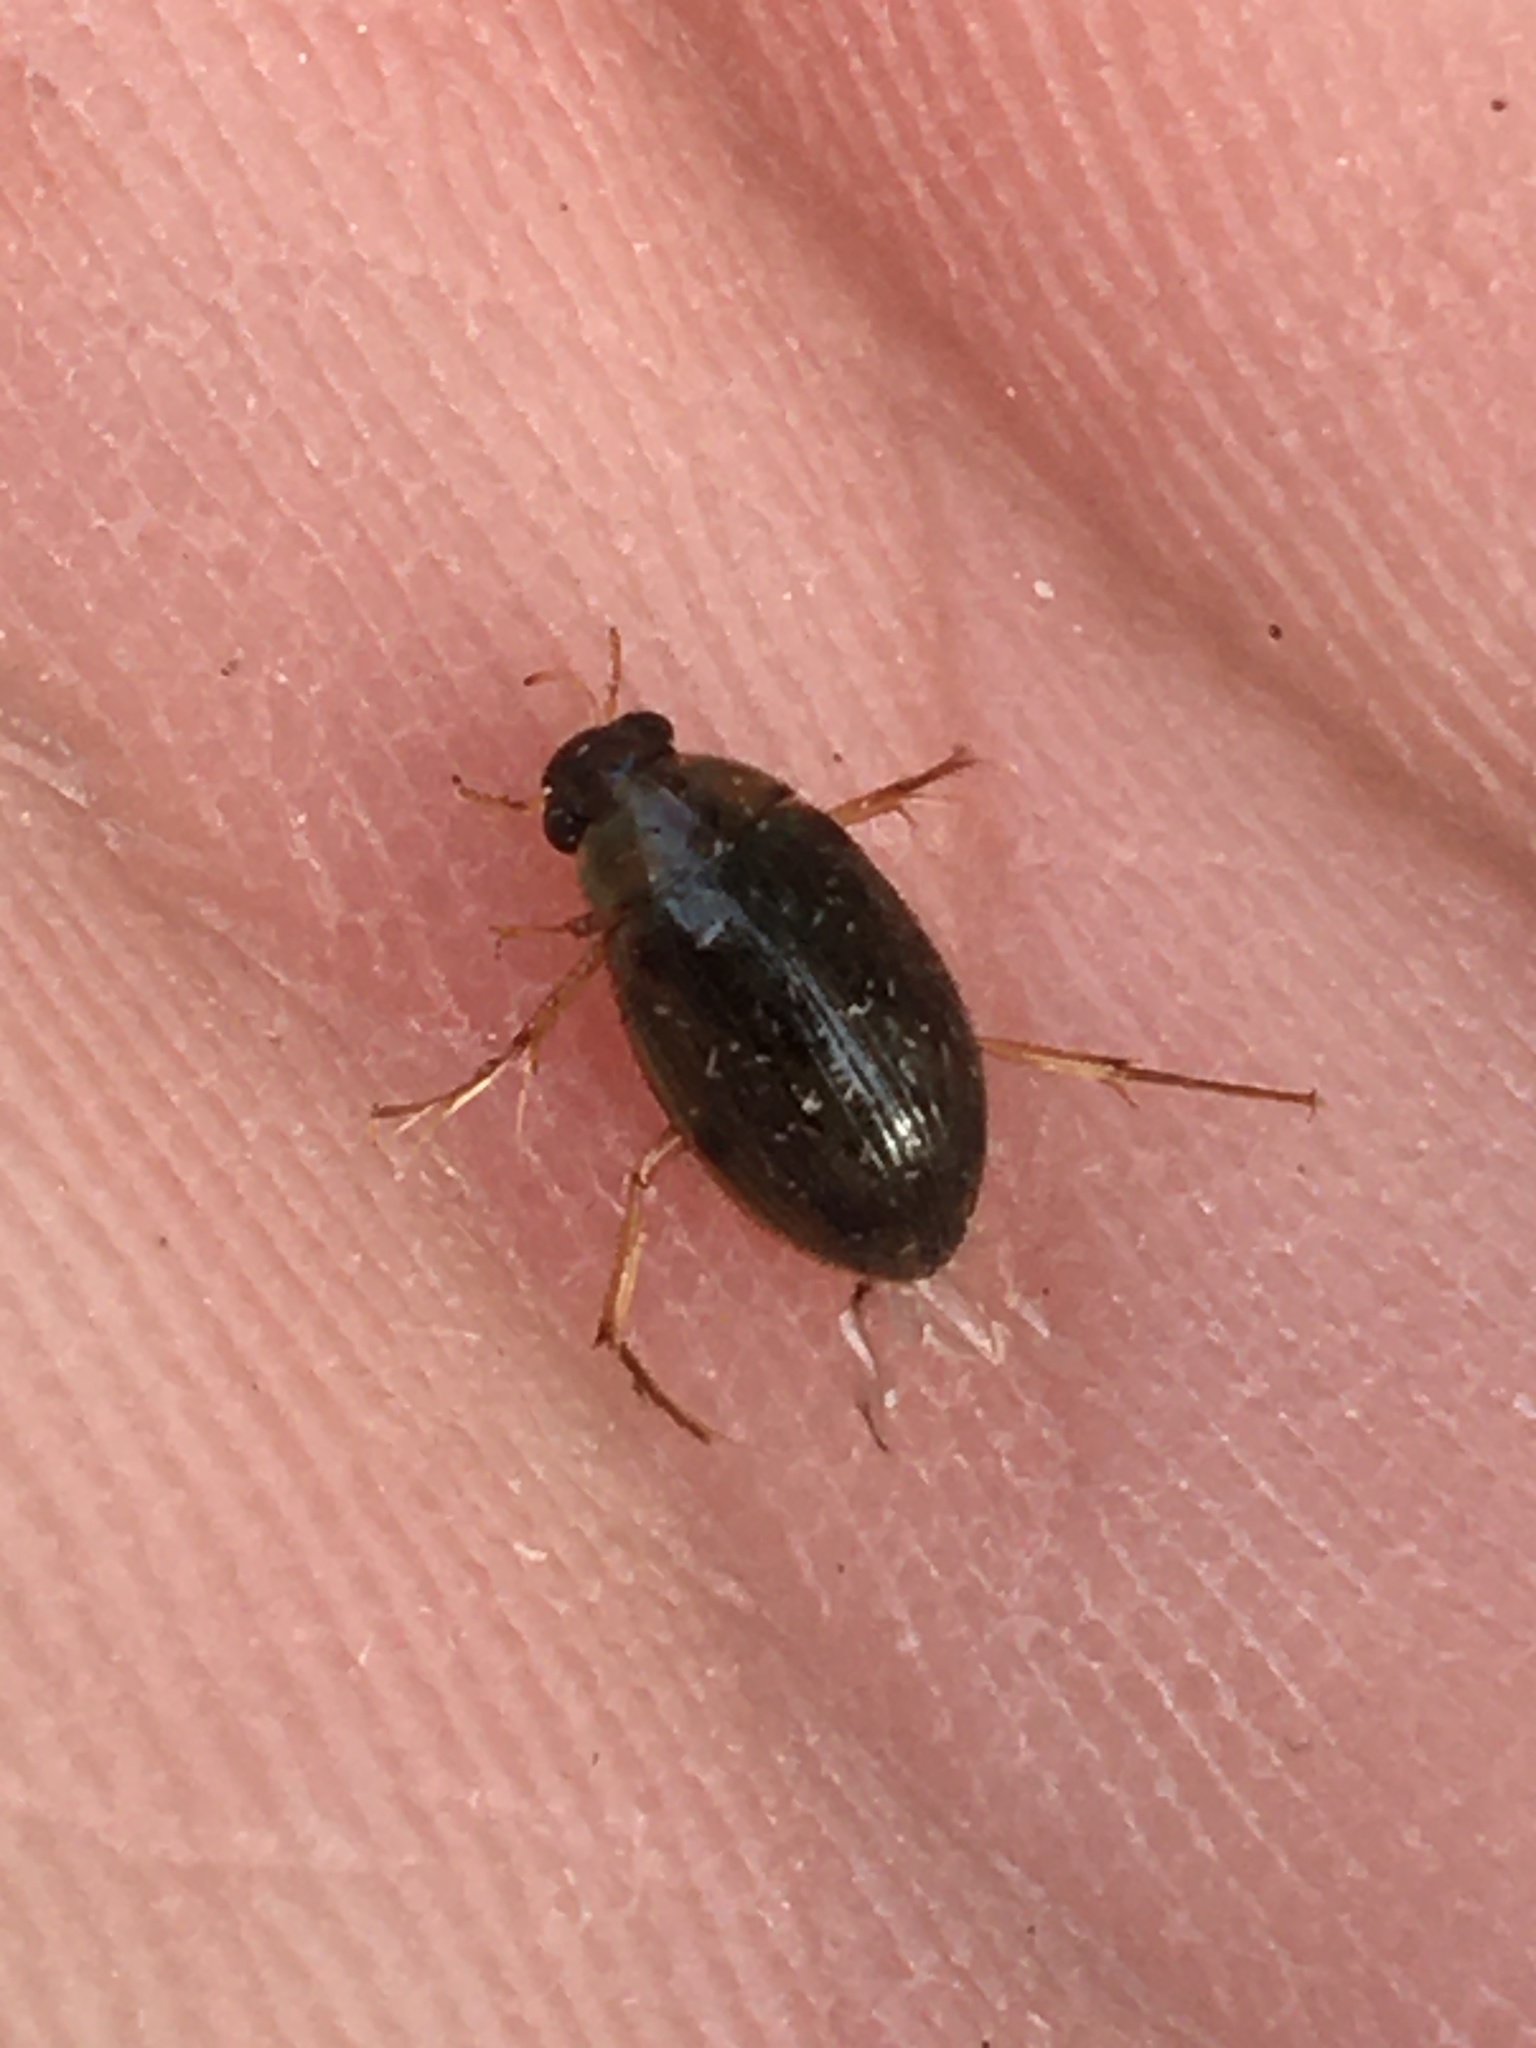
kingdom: Animalia
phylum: Arthropoda
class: Insecta
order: Coleoptera
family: Hydrophilidae
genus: Berosus
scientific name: Berosus
